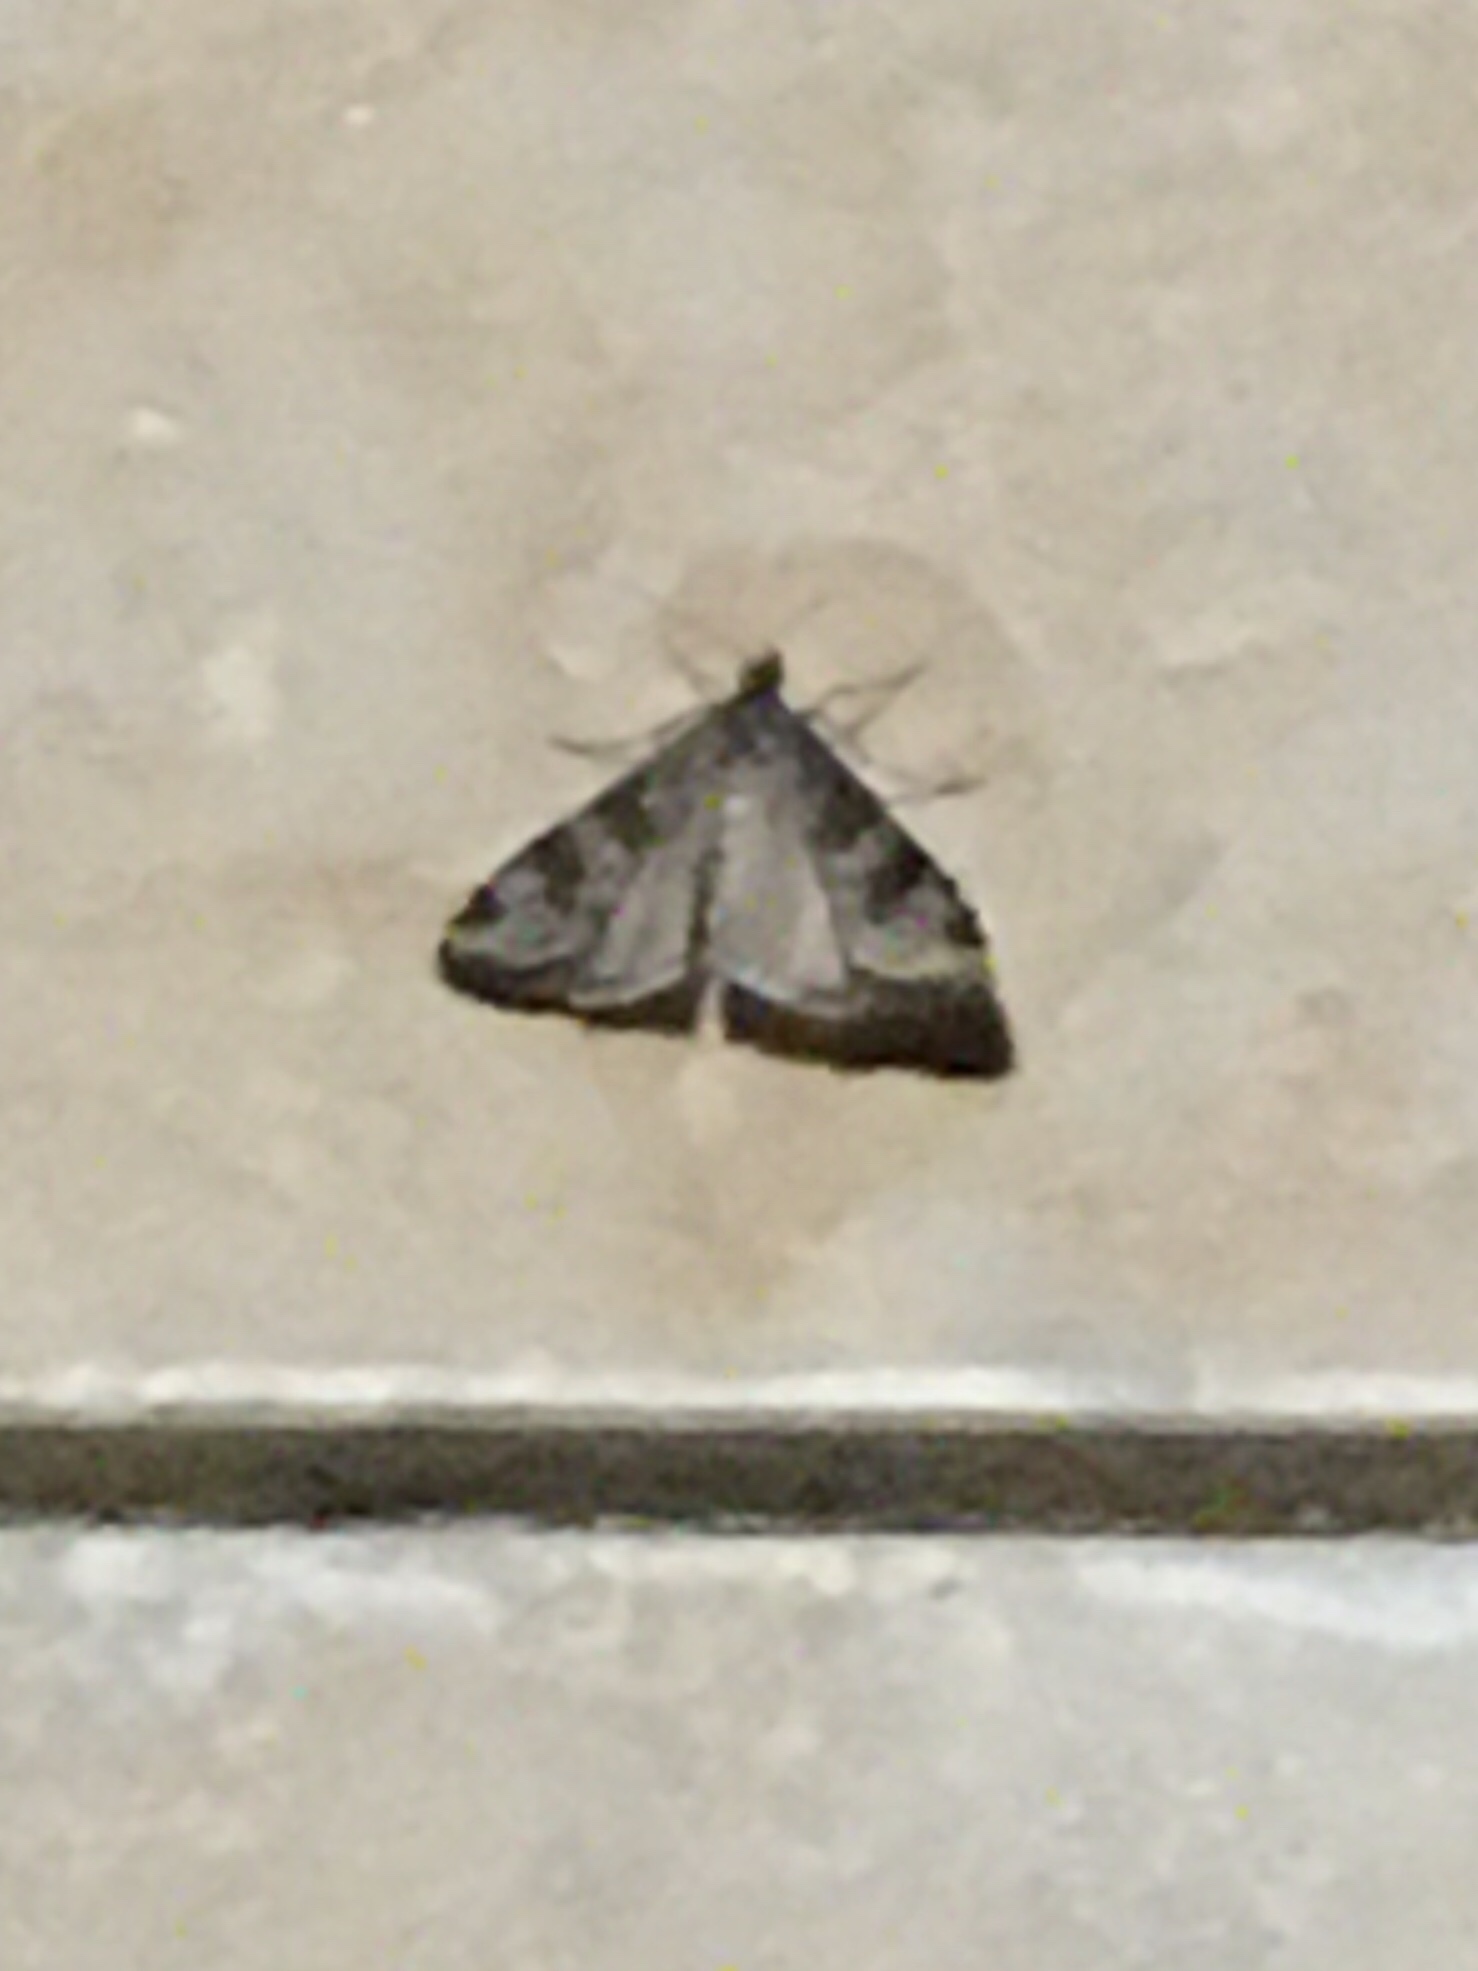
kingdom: Animalia
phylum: Arthropoda
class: Insecta
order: Lepidoptera
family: Crambidae
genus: Nomophila
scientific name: Nomophila nearctica
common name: American rush veneer
